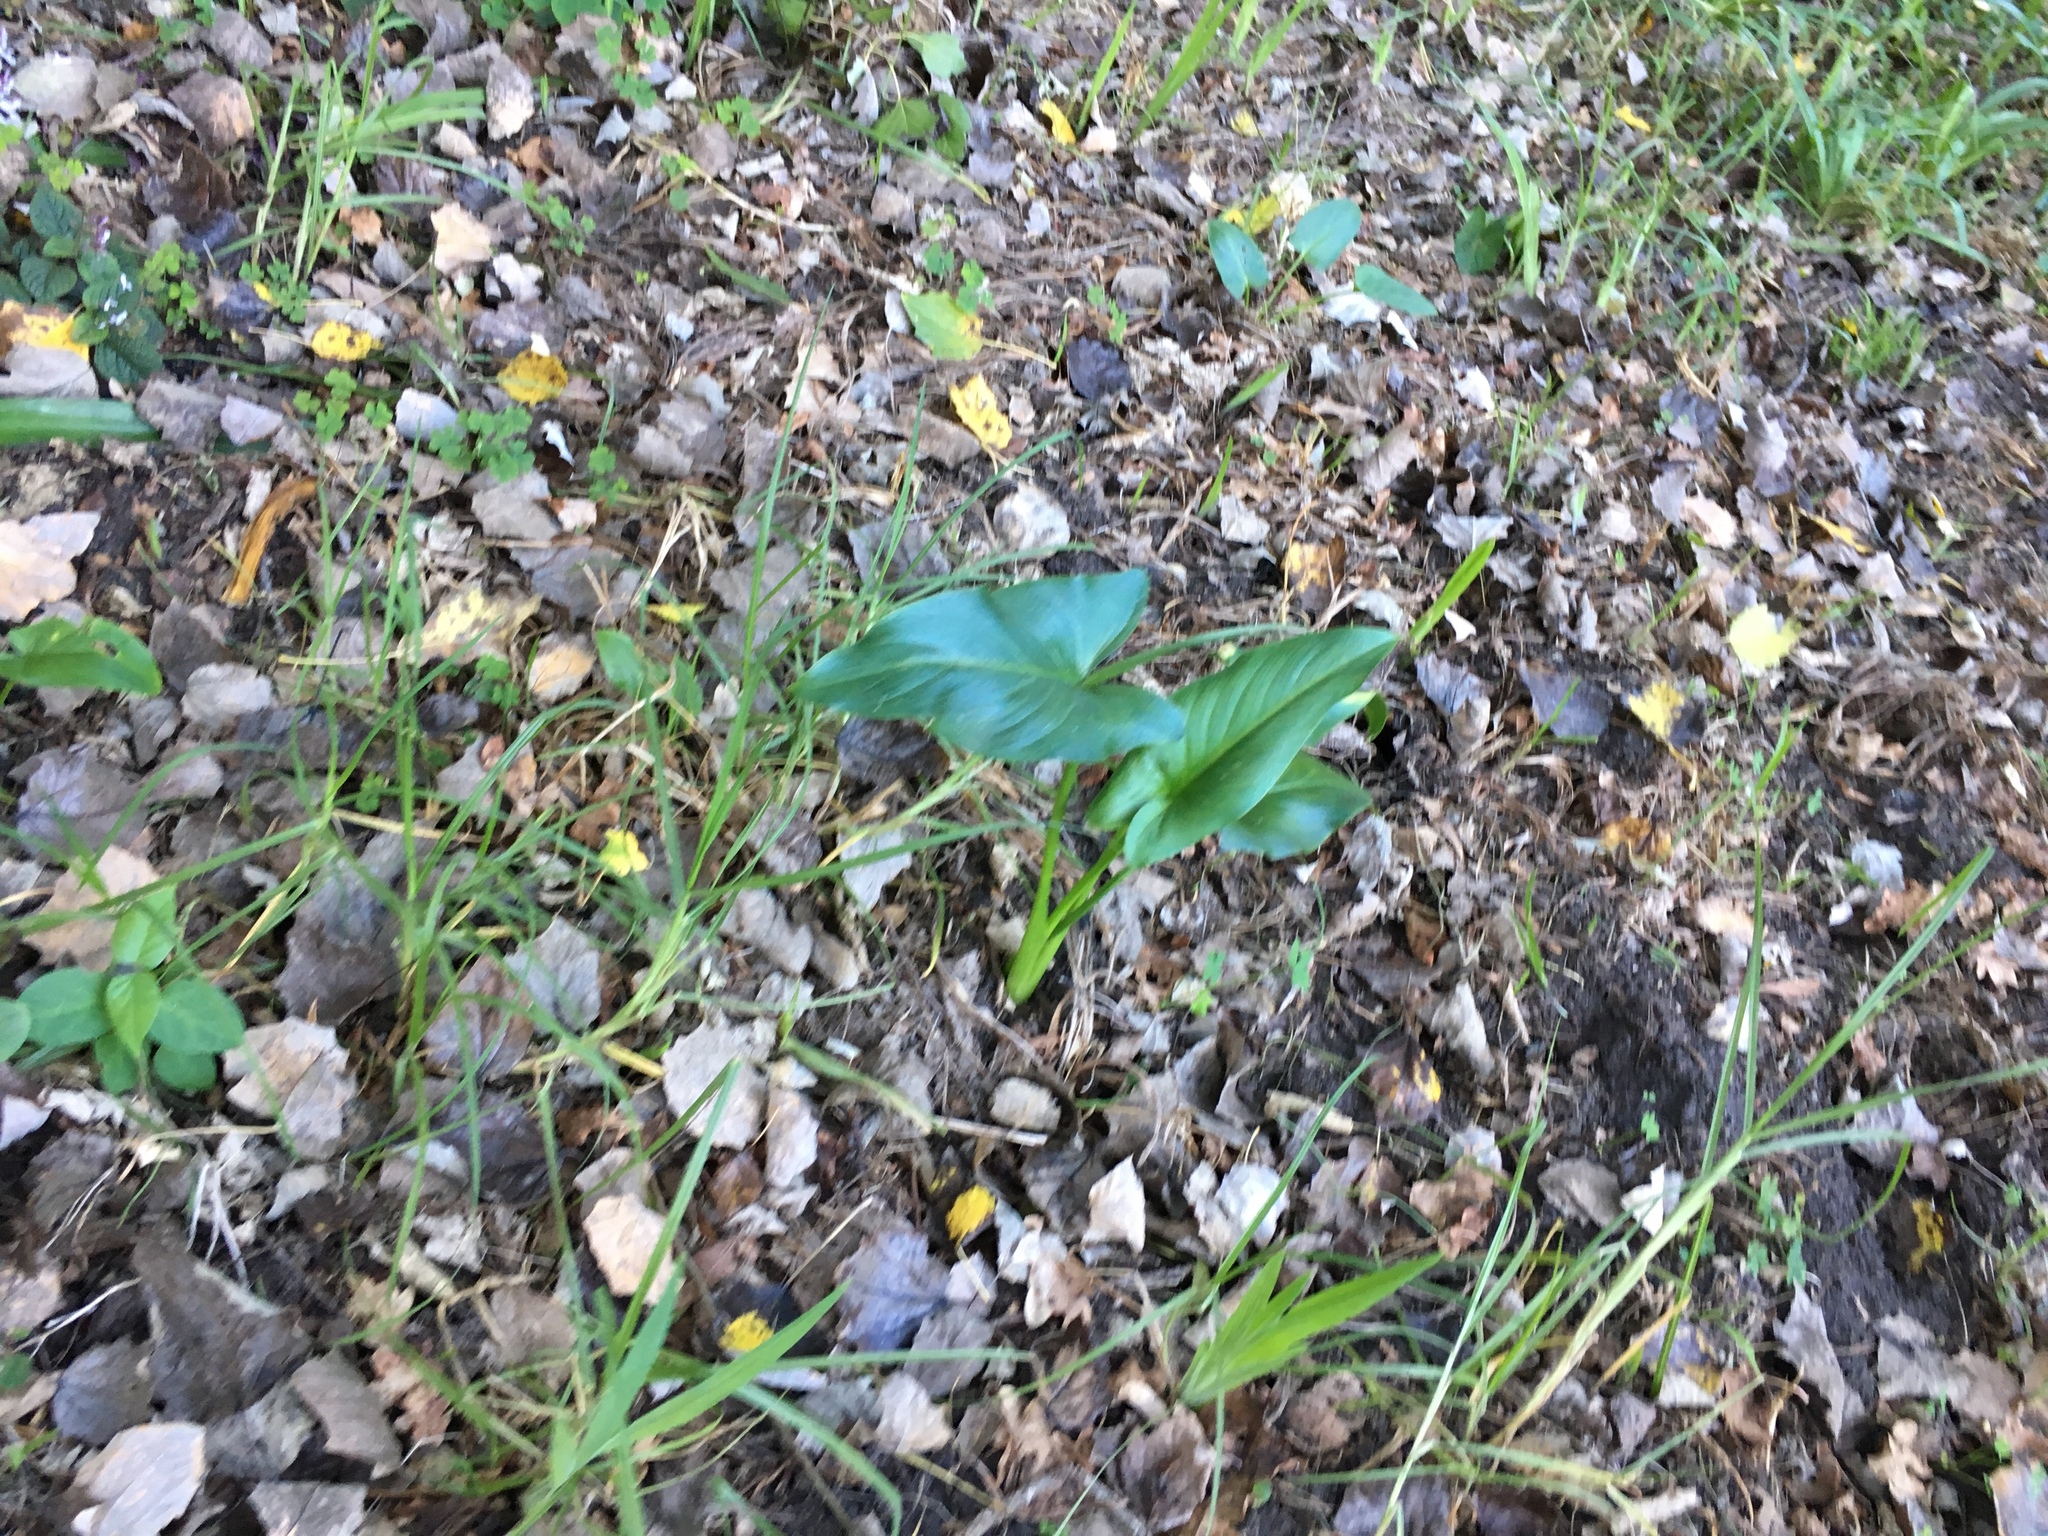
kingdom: Plantae
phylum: Tracheophyta
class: Liliopsida
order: Alismatales
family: Araceae
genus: Zantedeschia
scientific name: Zantedeschia aethiopica
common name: Altar-lily
